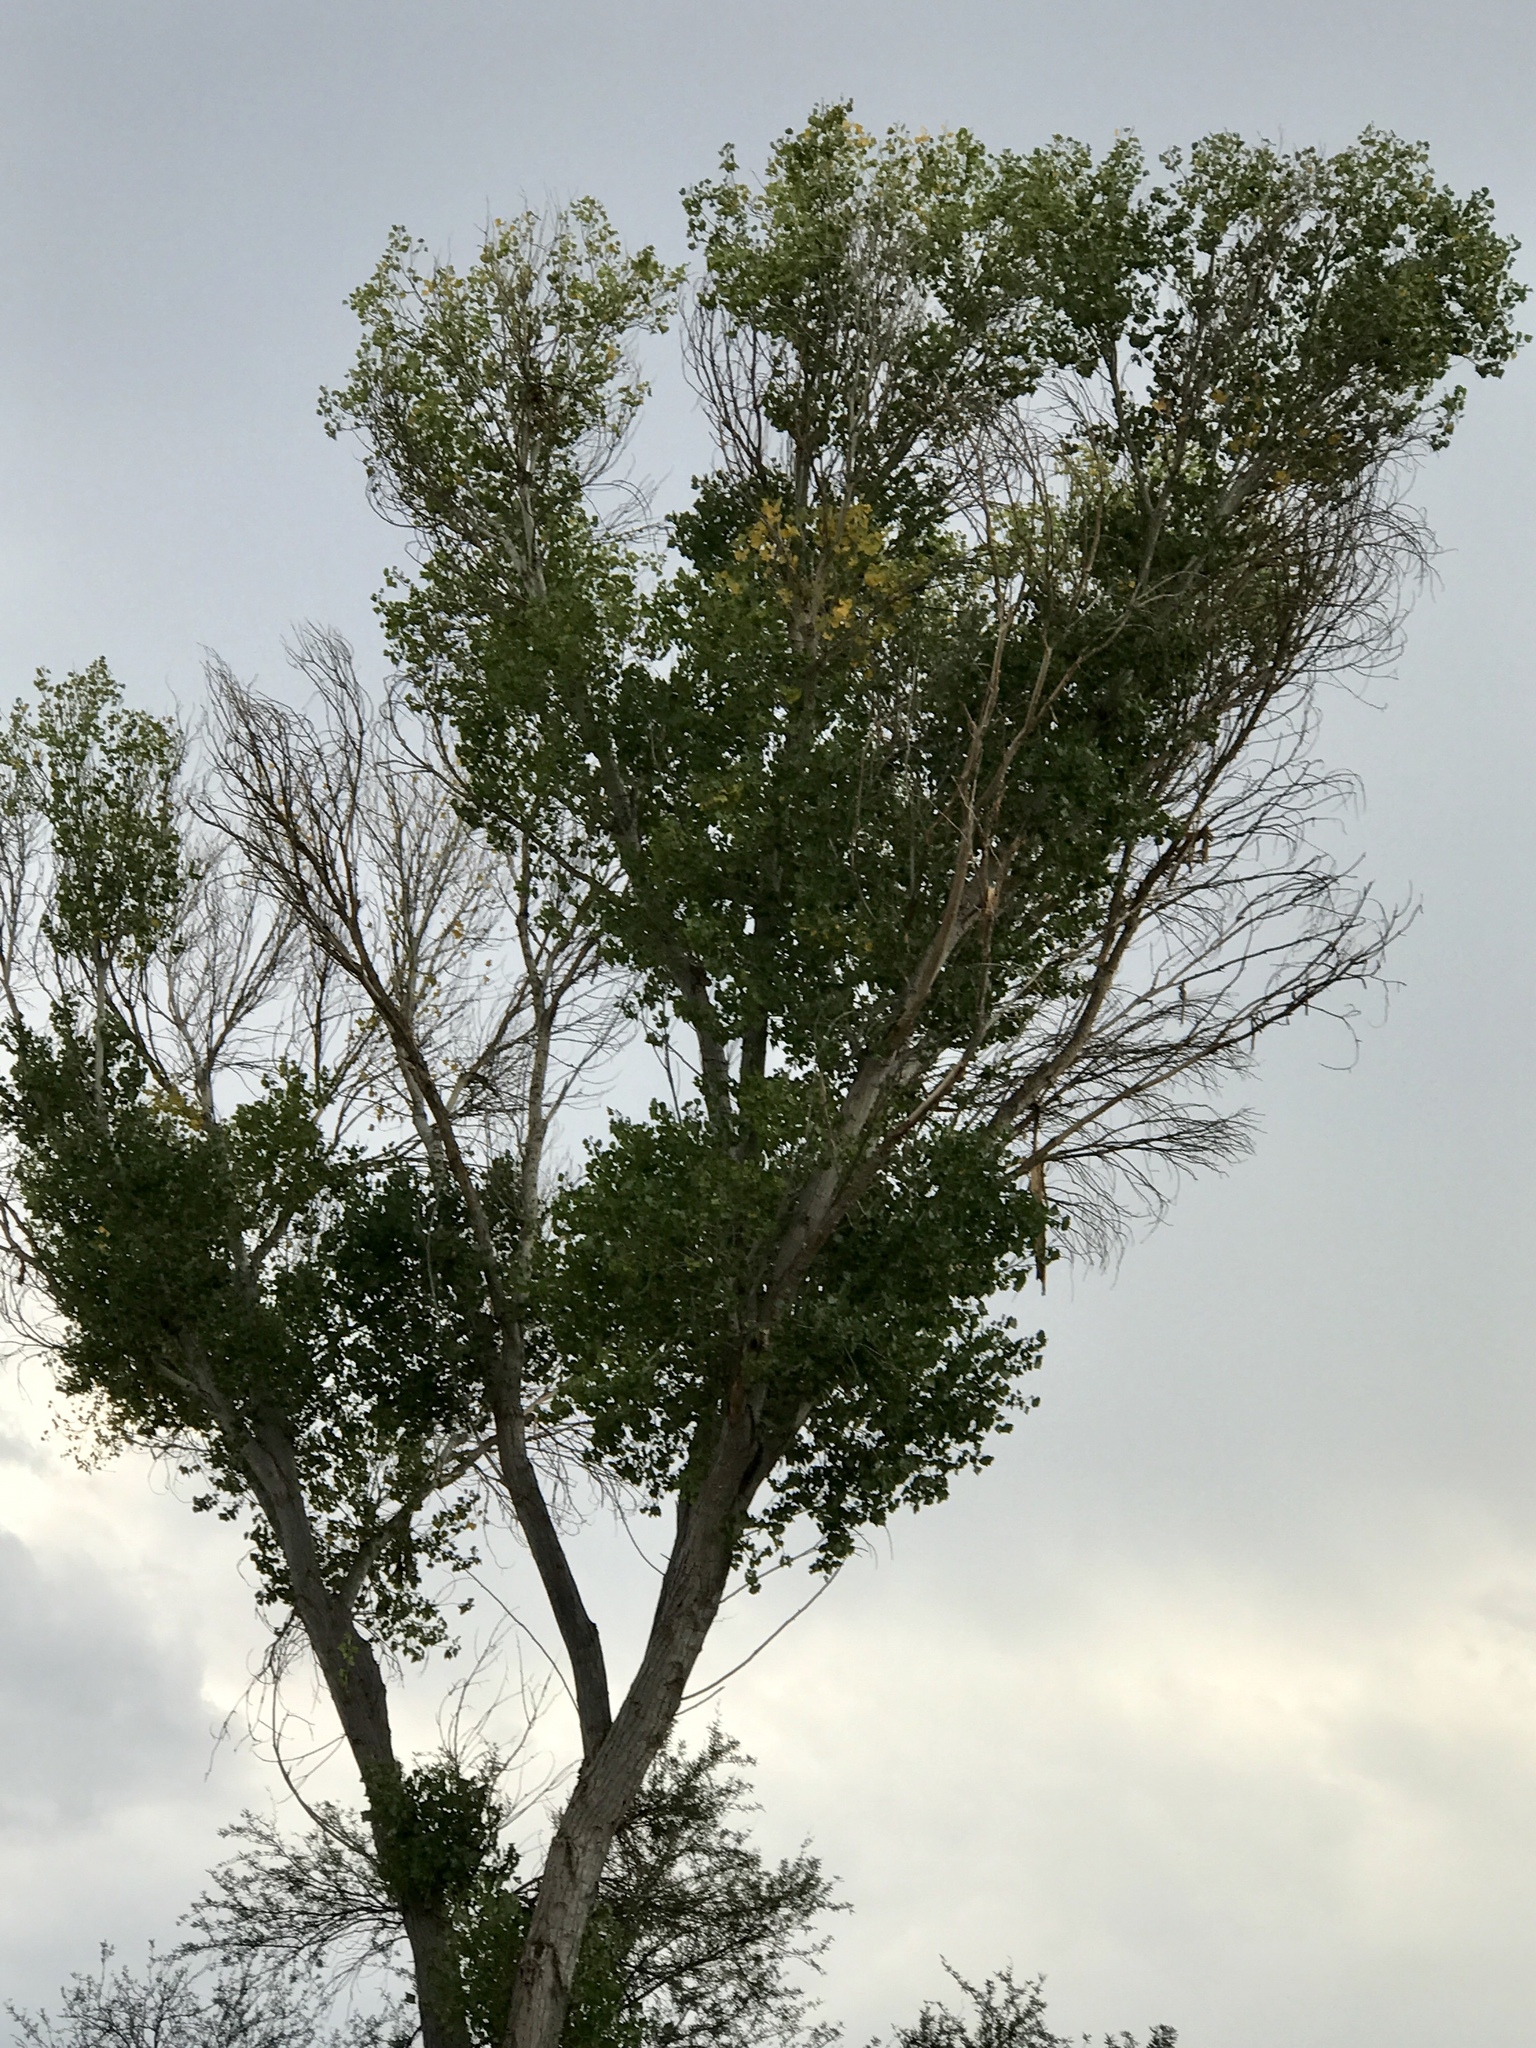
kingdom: Plantae
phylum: Tracheophyta
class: Magnoliopsida
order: Malpighiales
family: Salicaceae
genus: Populus
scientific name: Populus fremontii
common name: Fremont's cottonwood
